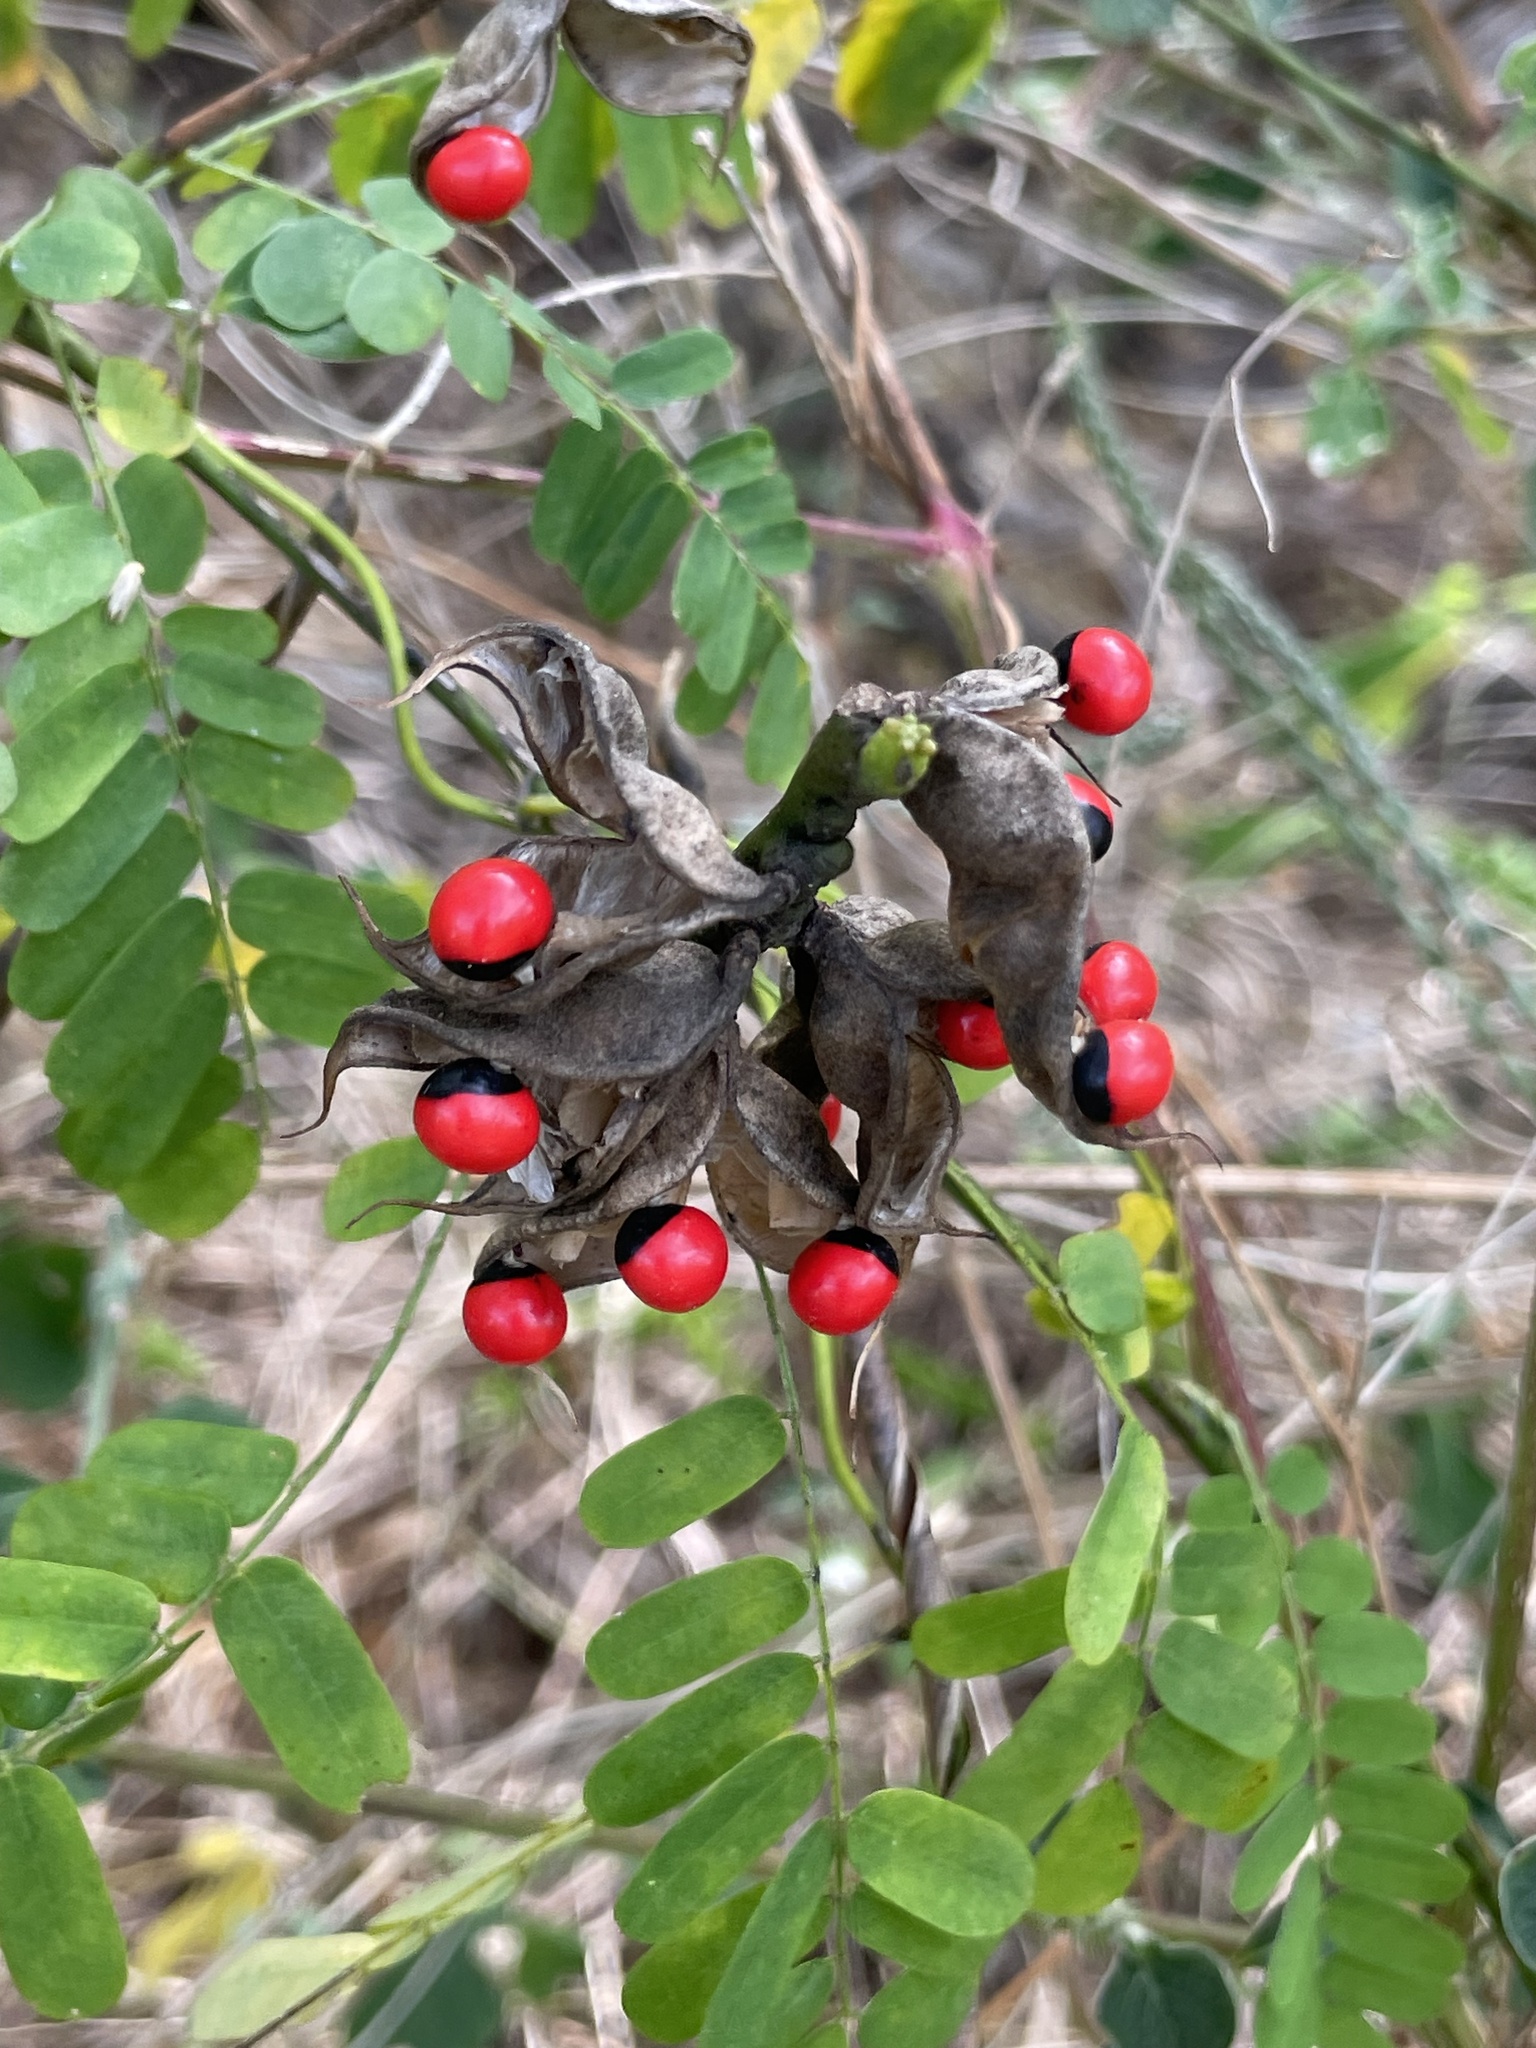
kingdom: Plantae
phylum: Tracheophyta
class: Magnoliopsida
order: Fabales
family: Fabaceae
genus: Abrus
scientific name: Abrus precatorius
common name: Rosarypea
